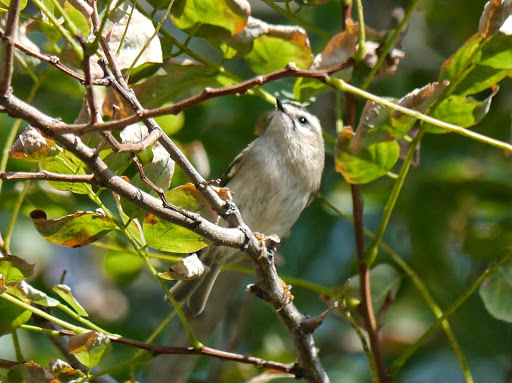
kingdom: Animalia
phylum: Chordata
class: Aves
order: Passeriformes
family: Regulidae
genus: Regulus
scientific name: Regulus satrapa
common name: Golden-crowned kinglet
